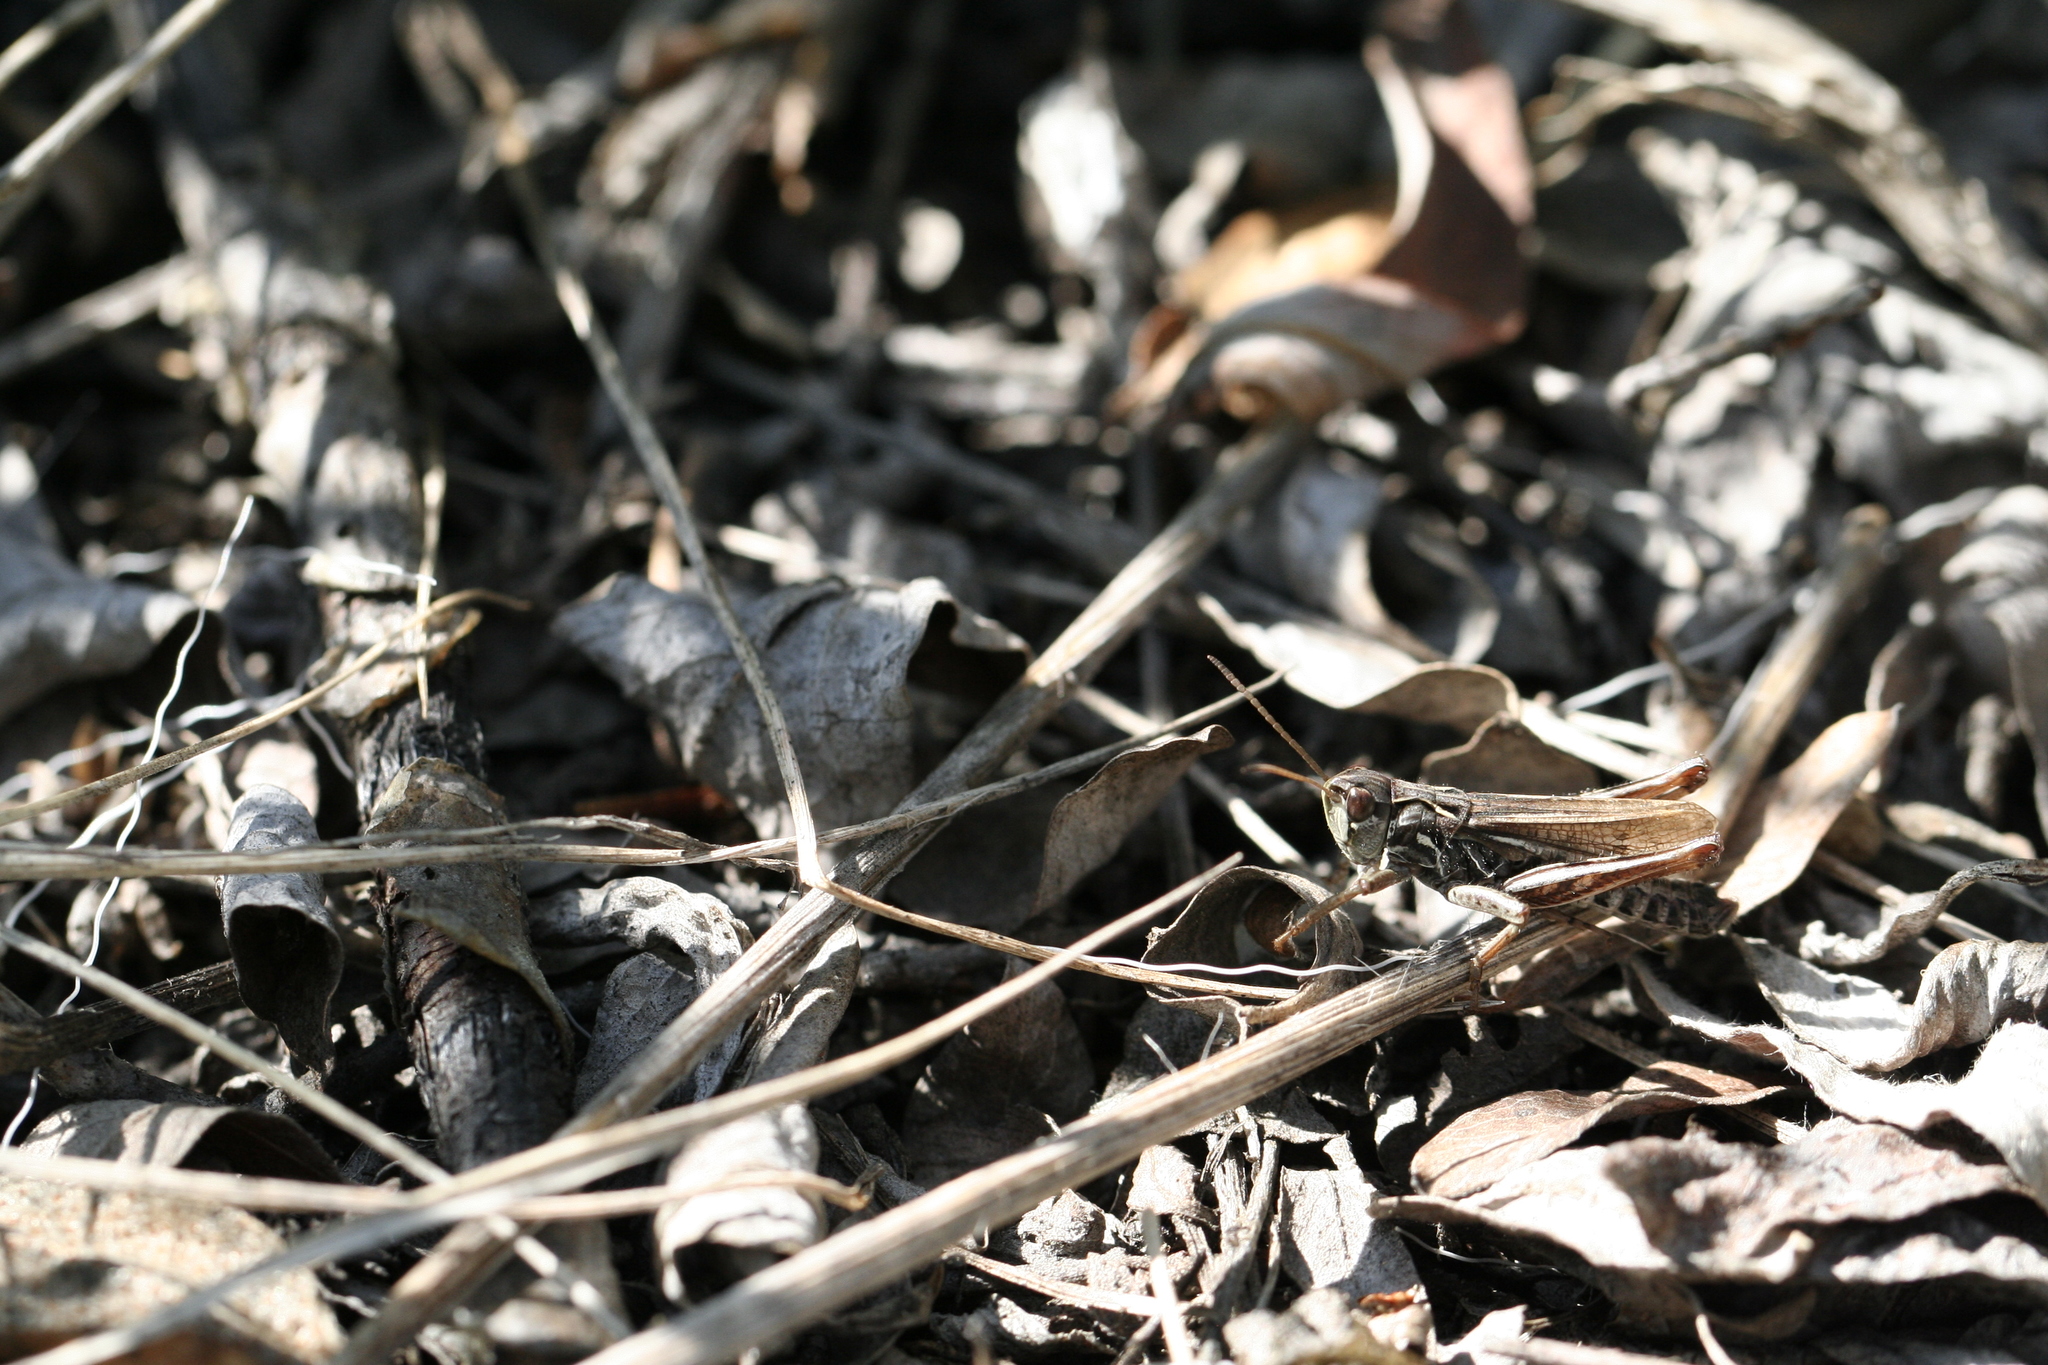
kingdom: Animalia
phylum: Arthropoda
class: Insecta
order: Orthoptera
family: Acrididae
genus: Aeropedellus
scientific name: Aeropedellus arcticus
